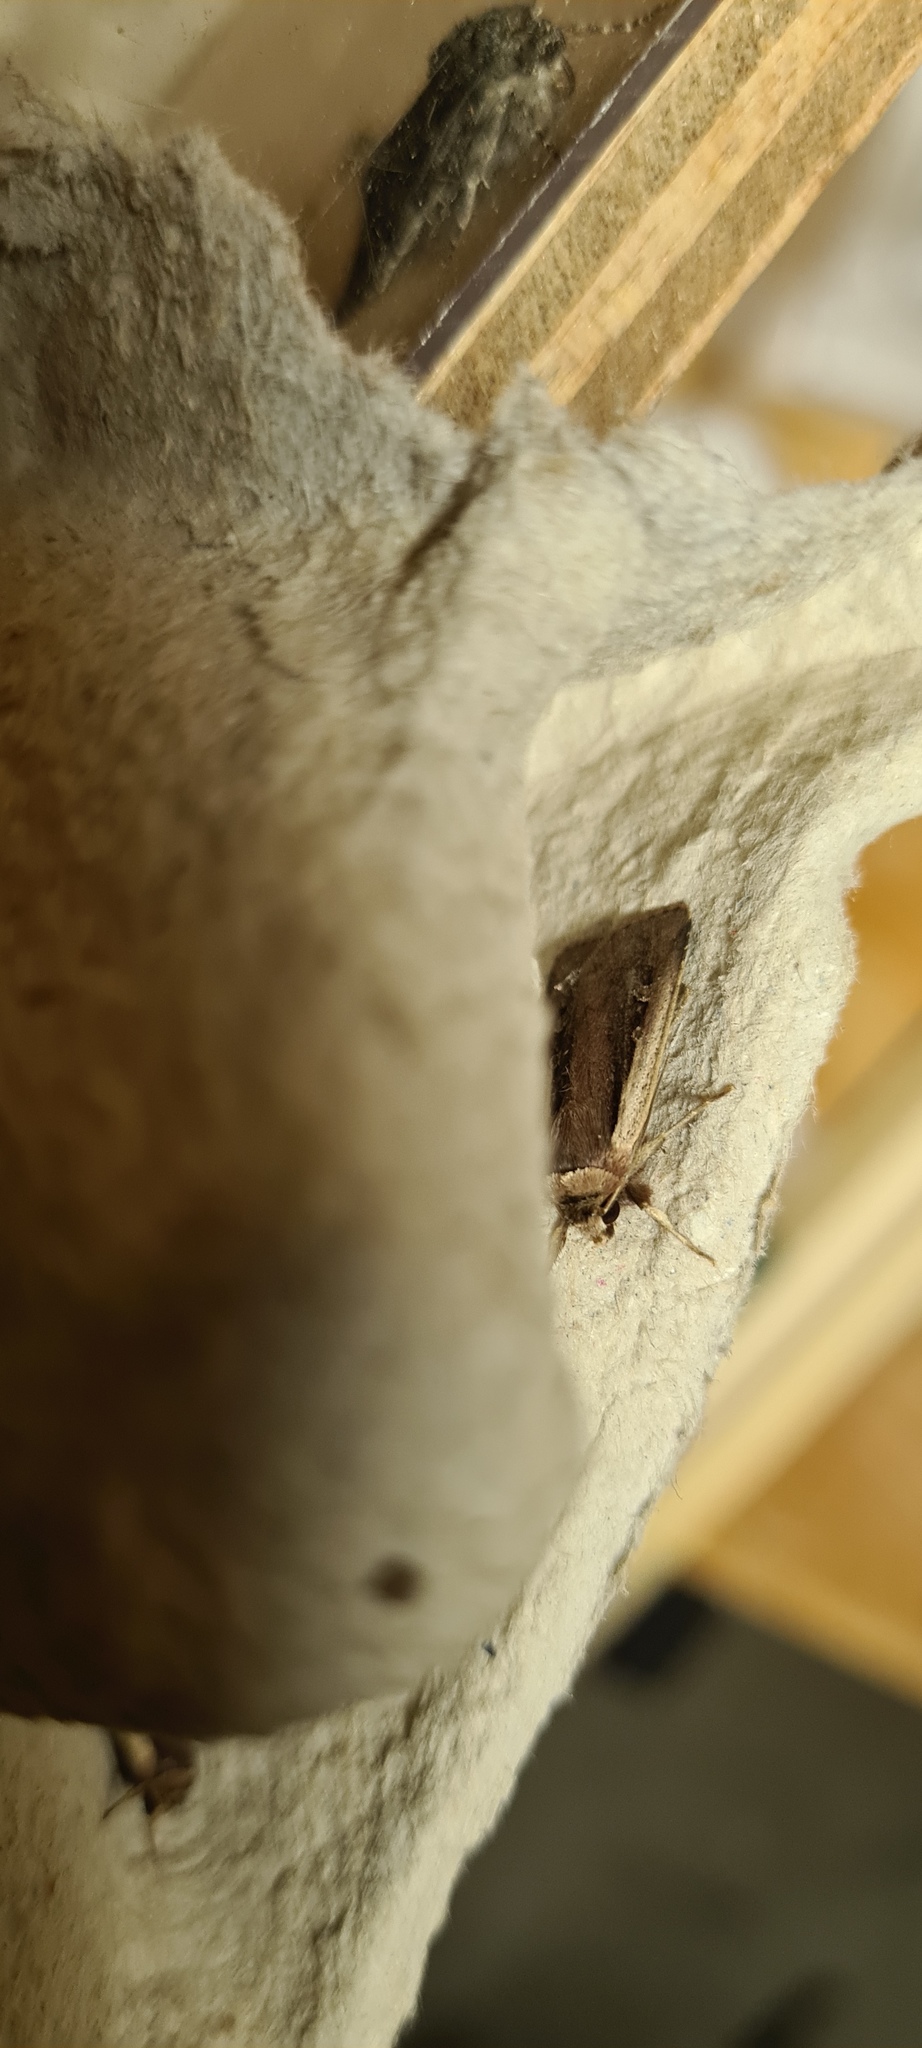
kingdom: Animalia
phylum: Arthropoda
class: Insecta
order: Lepidoptera
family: Noctuidae
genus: Ochropleura
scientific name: Ochropleura plecta
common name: Flame shoulder
